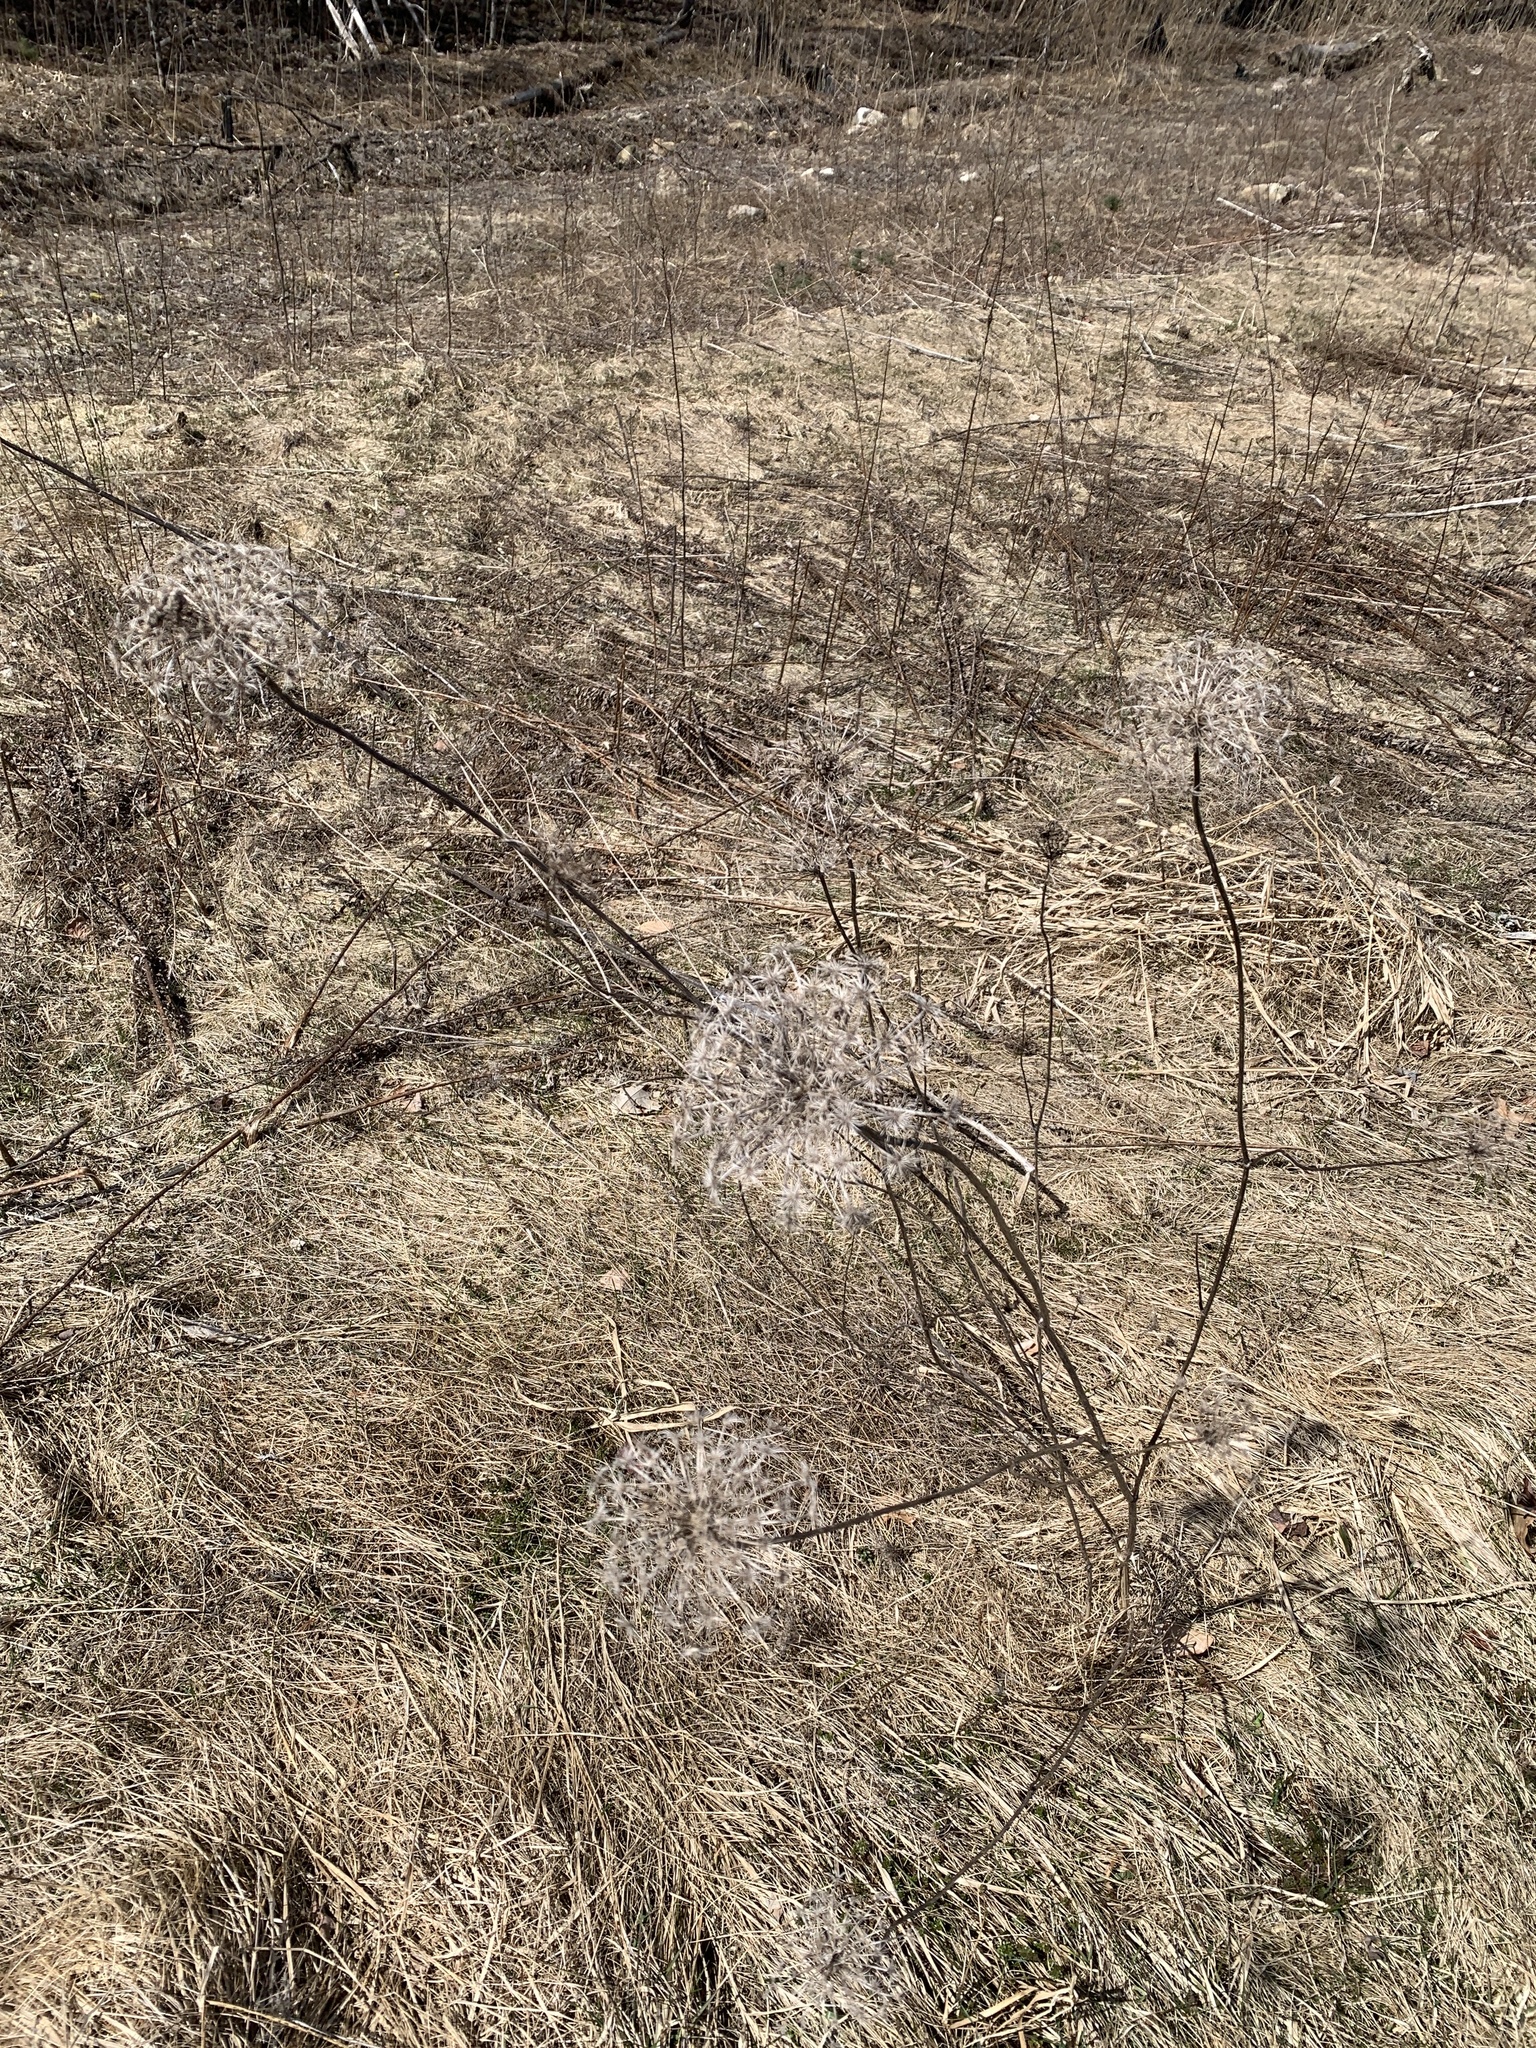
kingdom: Plantae
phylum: Tracheophyta
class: Magnoliopsida
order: Apiales
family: Apiaceae
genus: Daucus
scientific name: Daucus carota
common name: Wild carrot
